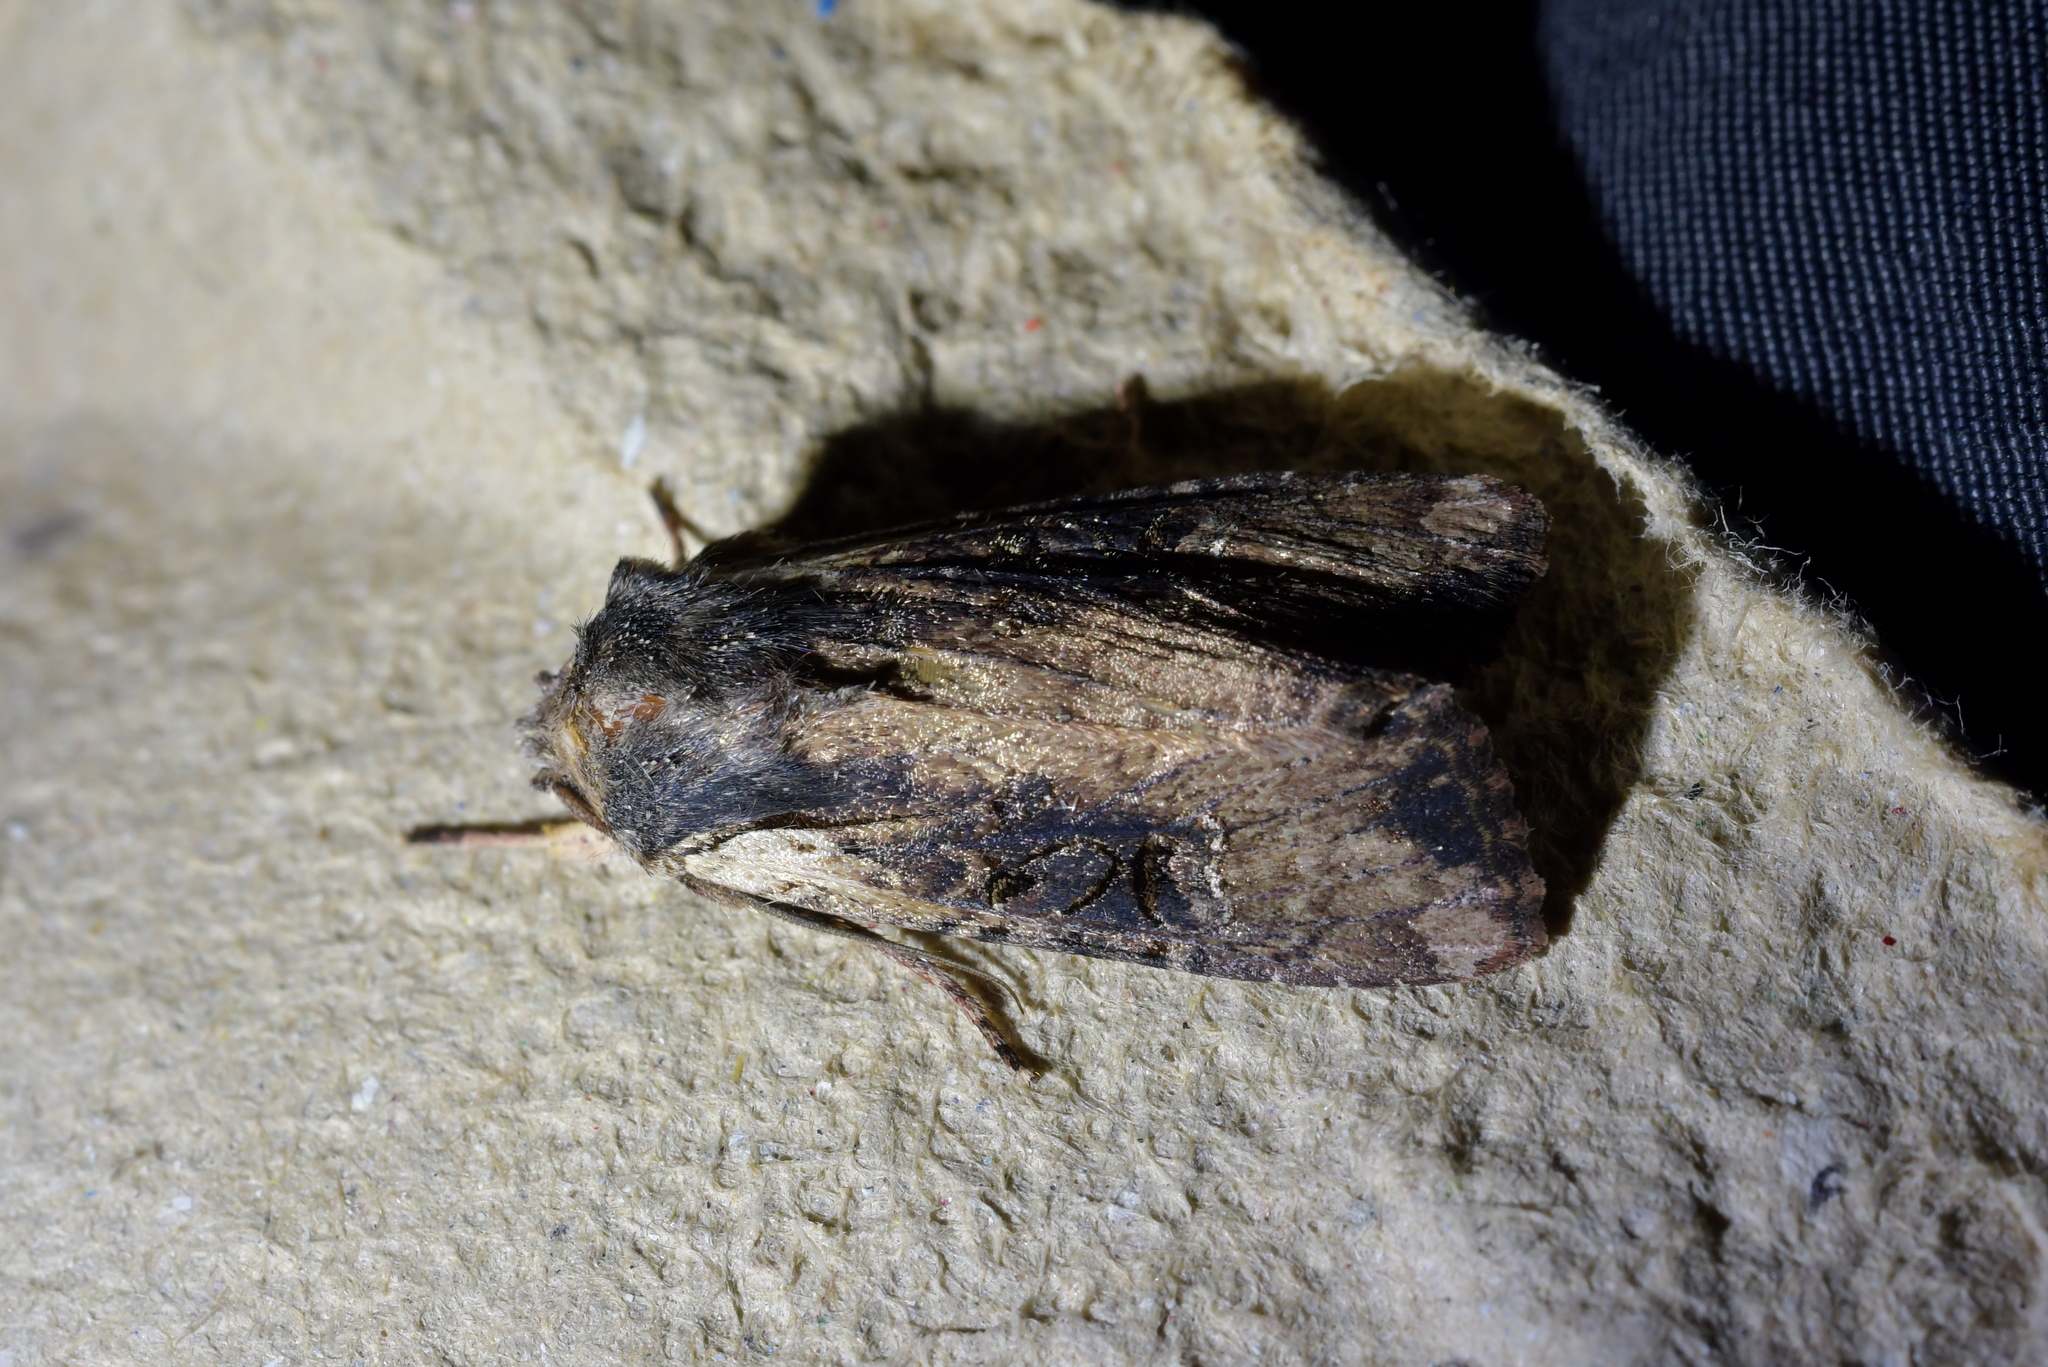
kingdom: Animalia
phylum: Arthropoda
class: Insecta
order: Lepidoptera
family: Noctuidae
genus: Ichneutica
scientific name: Ichneutica omoplaca
